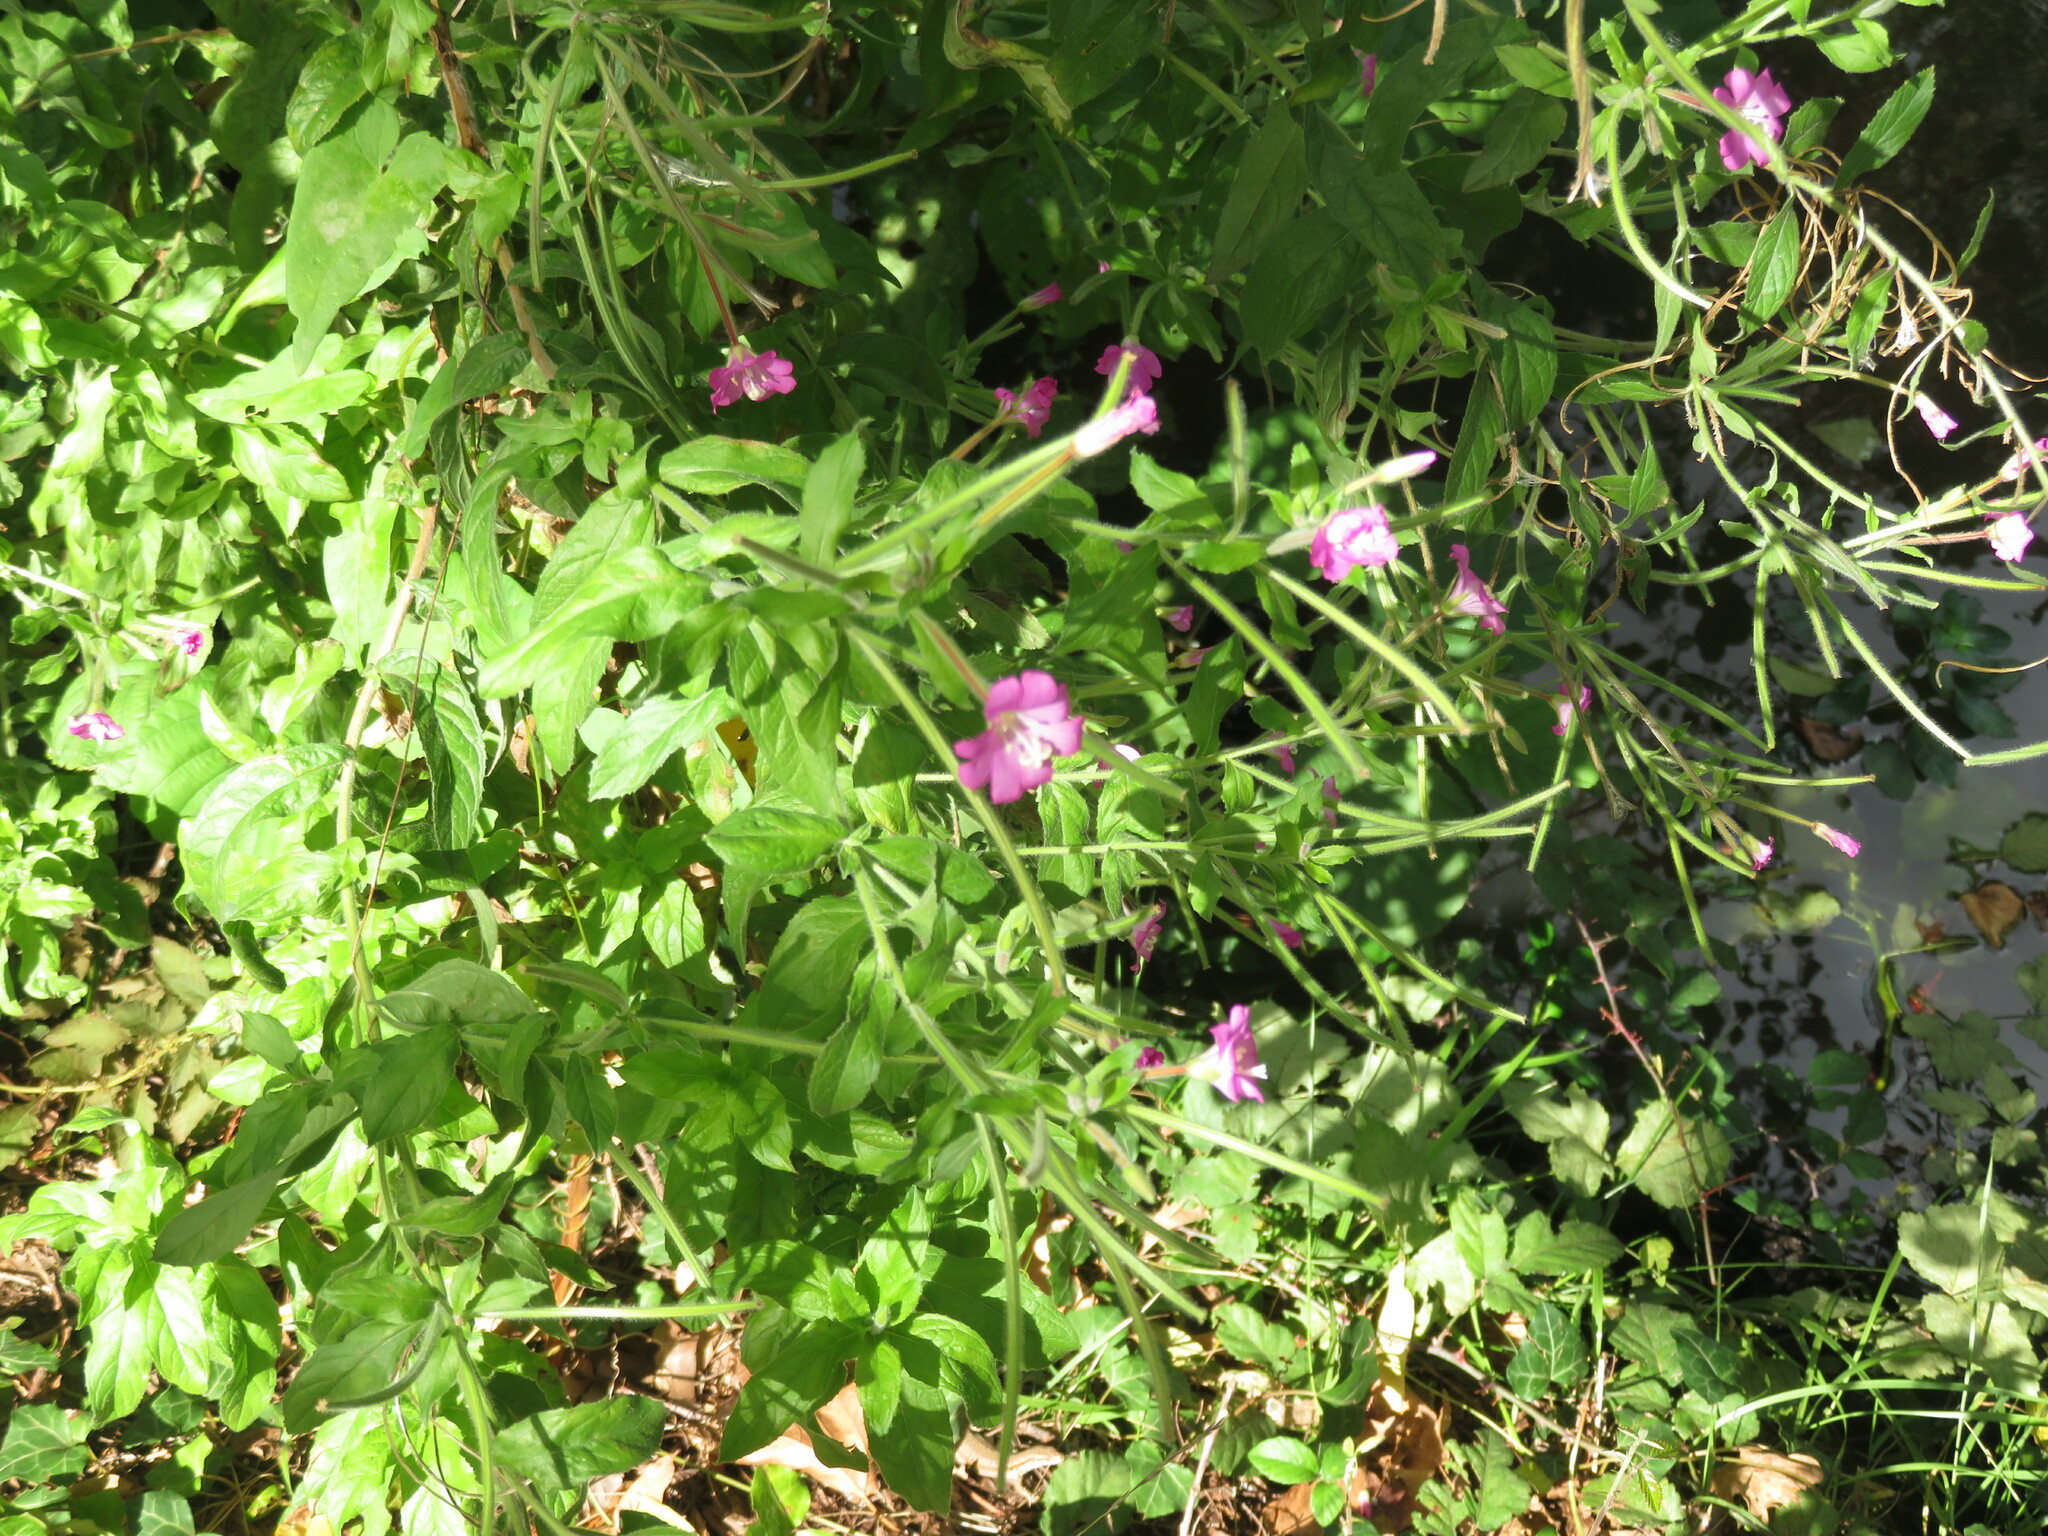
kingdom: Plantae
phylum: Tracheophyta
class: Magnoliopsida
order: Myrtales
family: Onagraceae
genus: Epilobium
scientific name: Epilobium hirsutum
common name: Great willowherb
